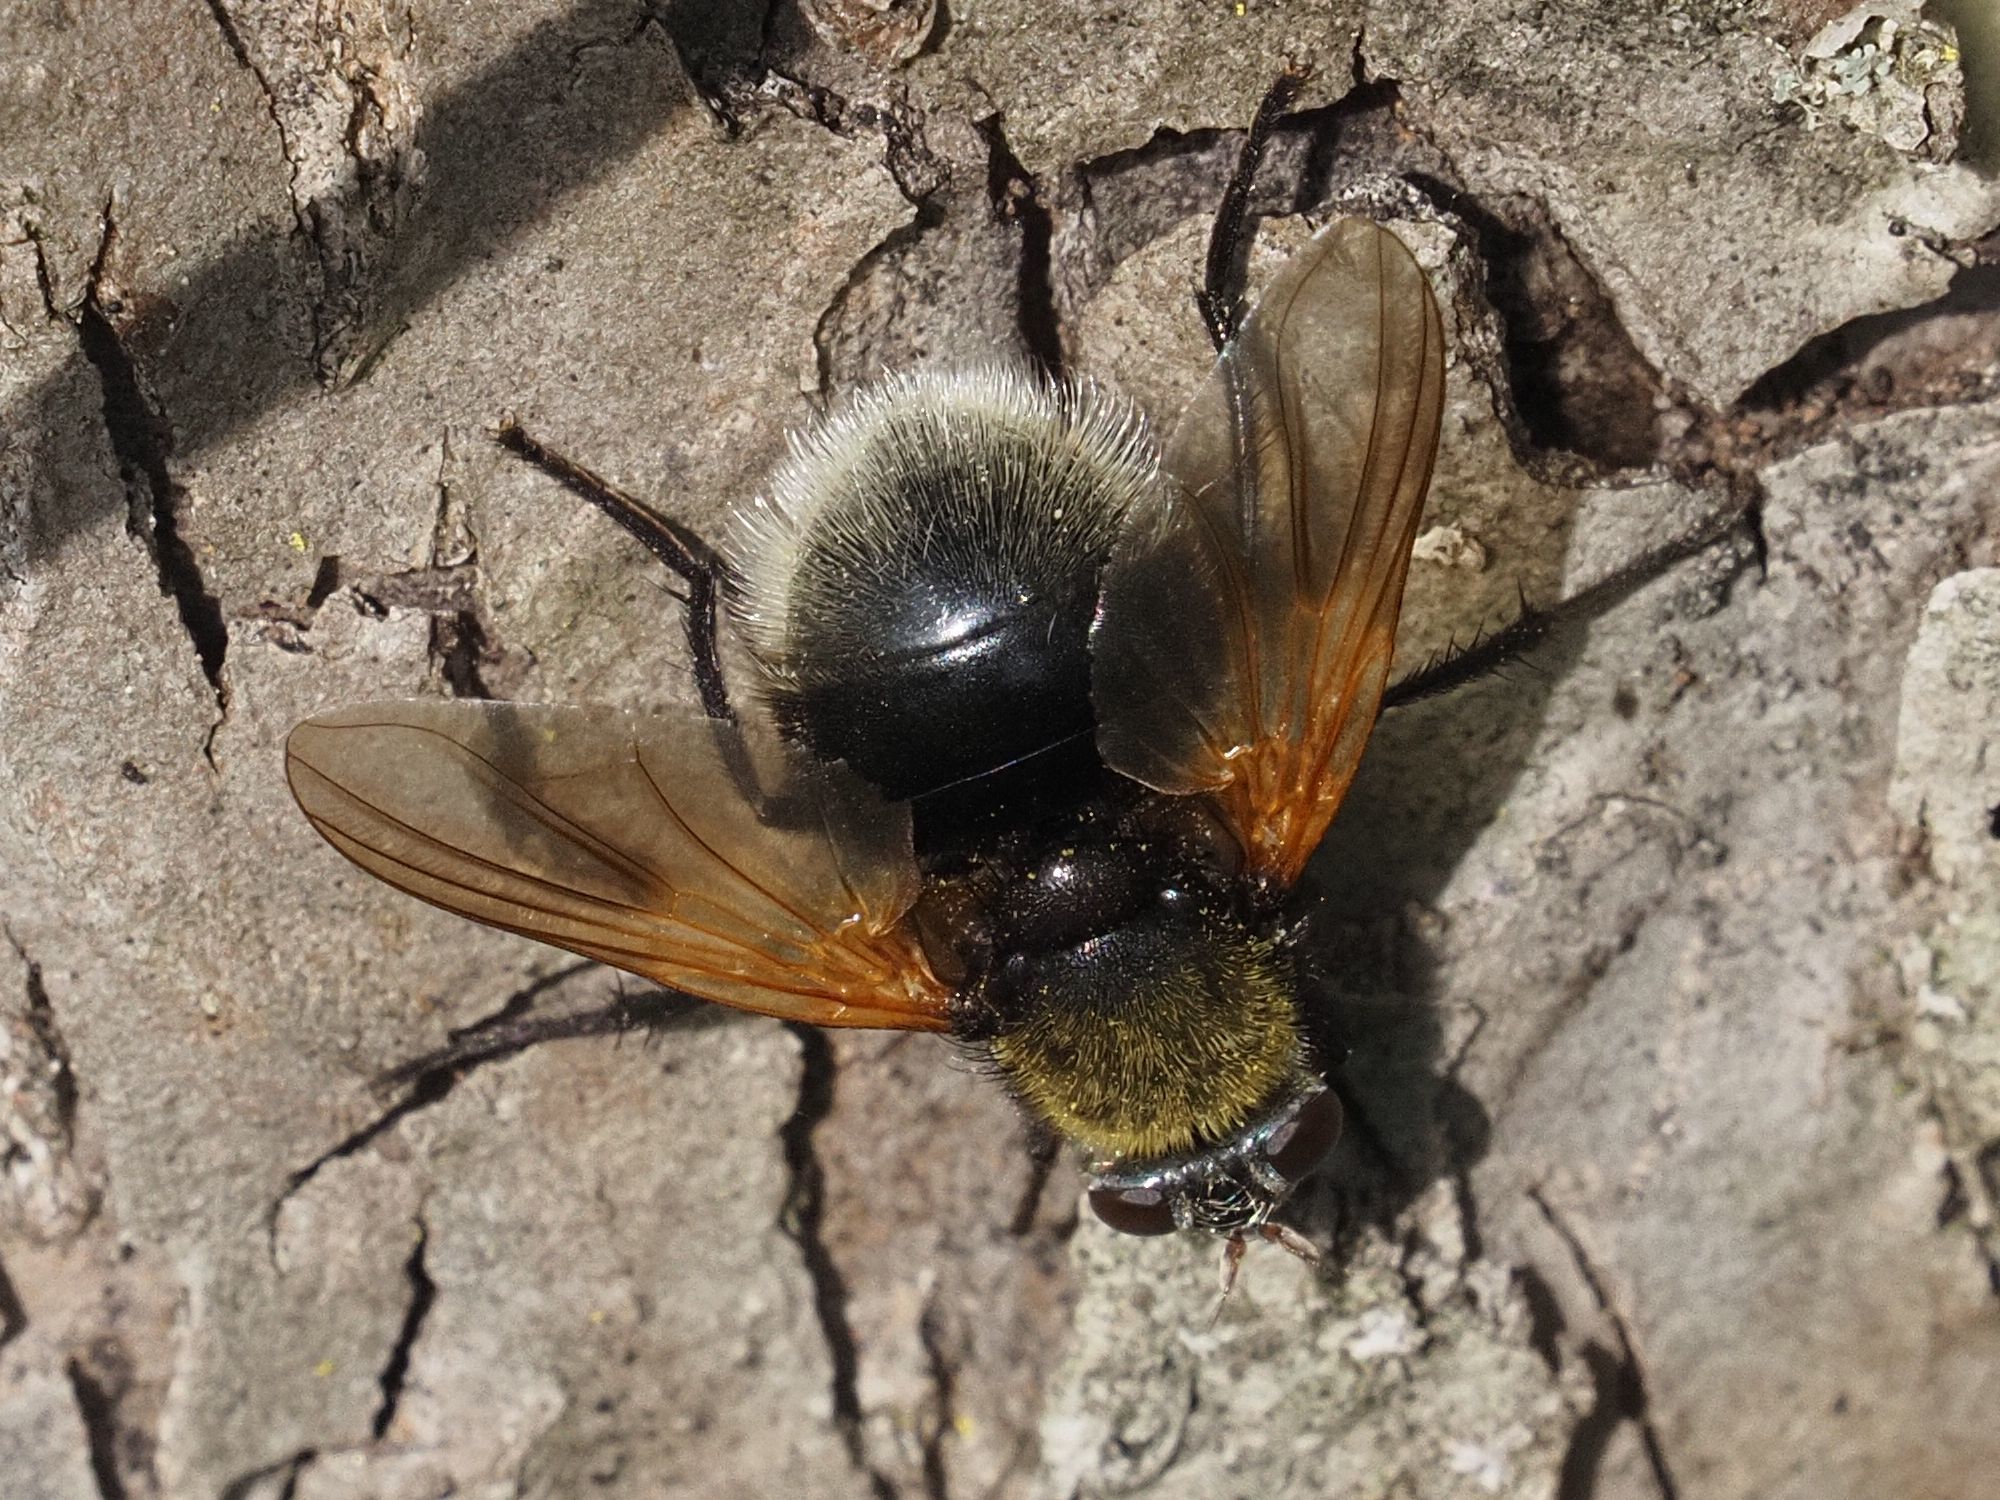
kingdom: Animalia
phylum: Arthropoda
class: Insecta
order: Diptera
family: Muscidae
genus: Mesembrina
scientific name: Mesembrina mystacea
